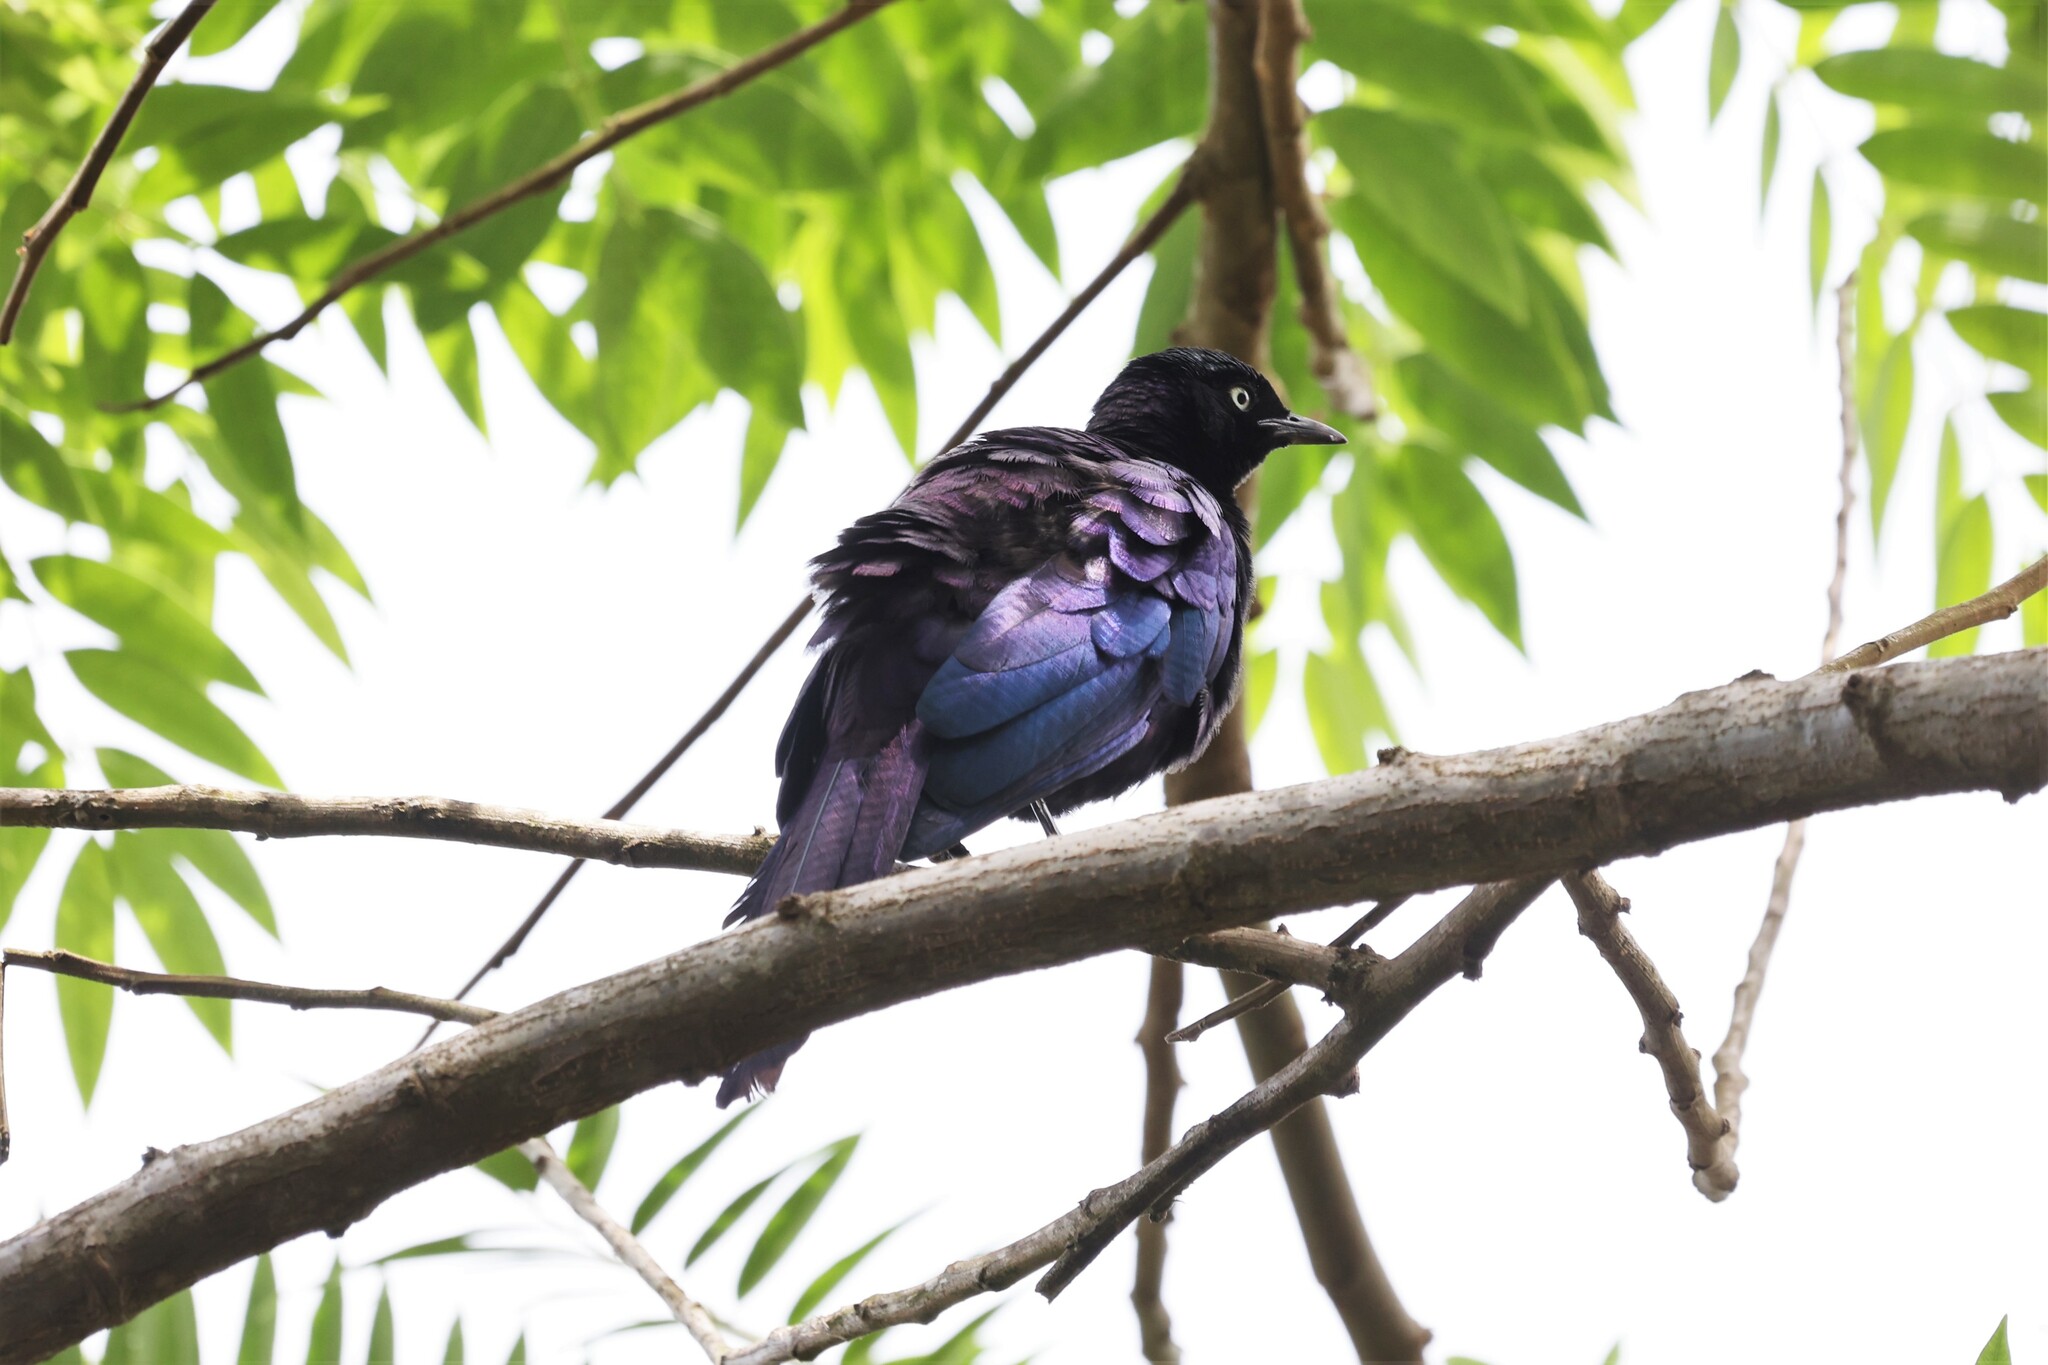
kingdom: Animalia
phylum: Chordata
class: Aves
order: Passeriformes
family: Sturnidae
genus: Lamprotornis
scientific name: Lamprotornis purpuroptera
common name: Rüppell's starling
